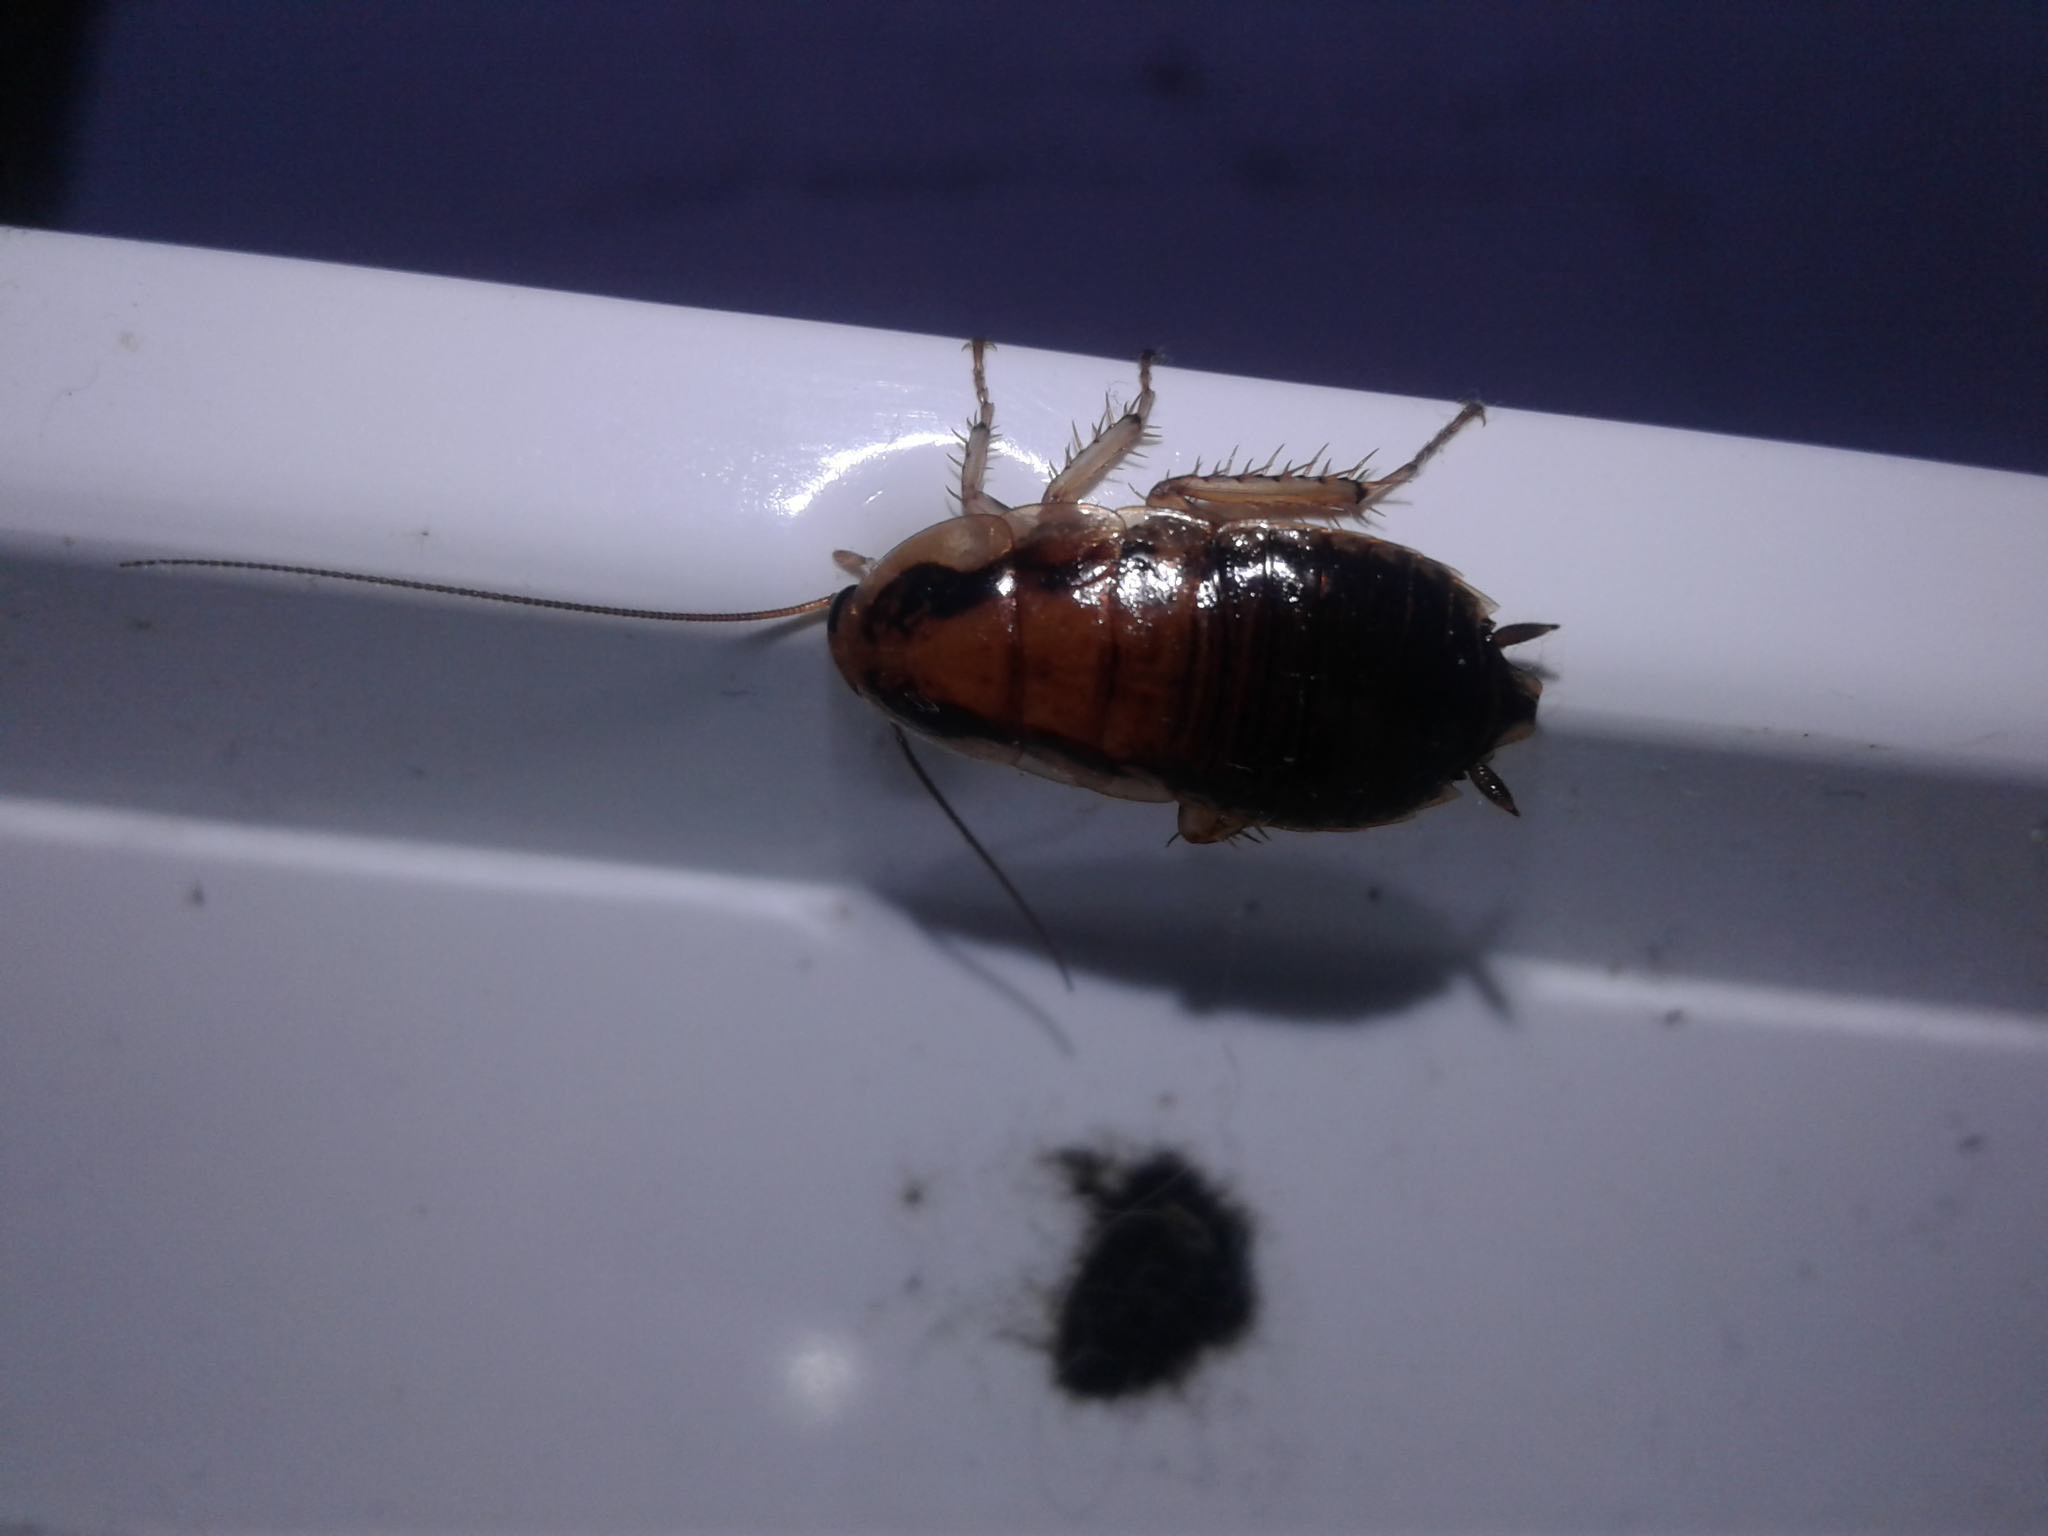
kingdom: Animalia
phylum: Arthropoda
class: Insecta
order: Blattodea
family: Blattidae
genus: Celatoblatta
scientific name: Celatoblatta
